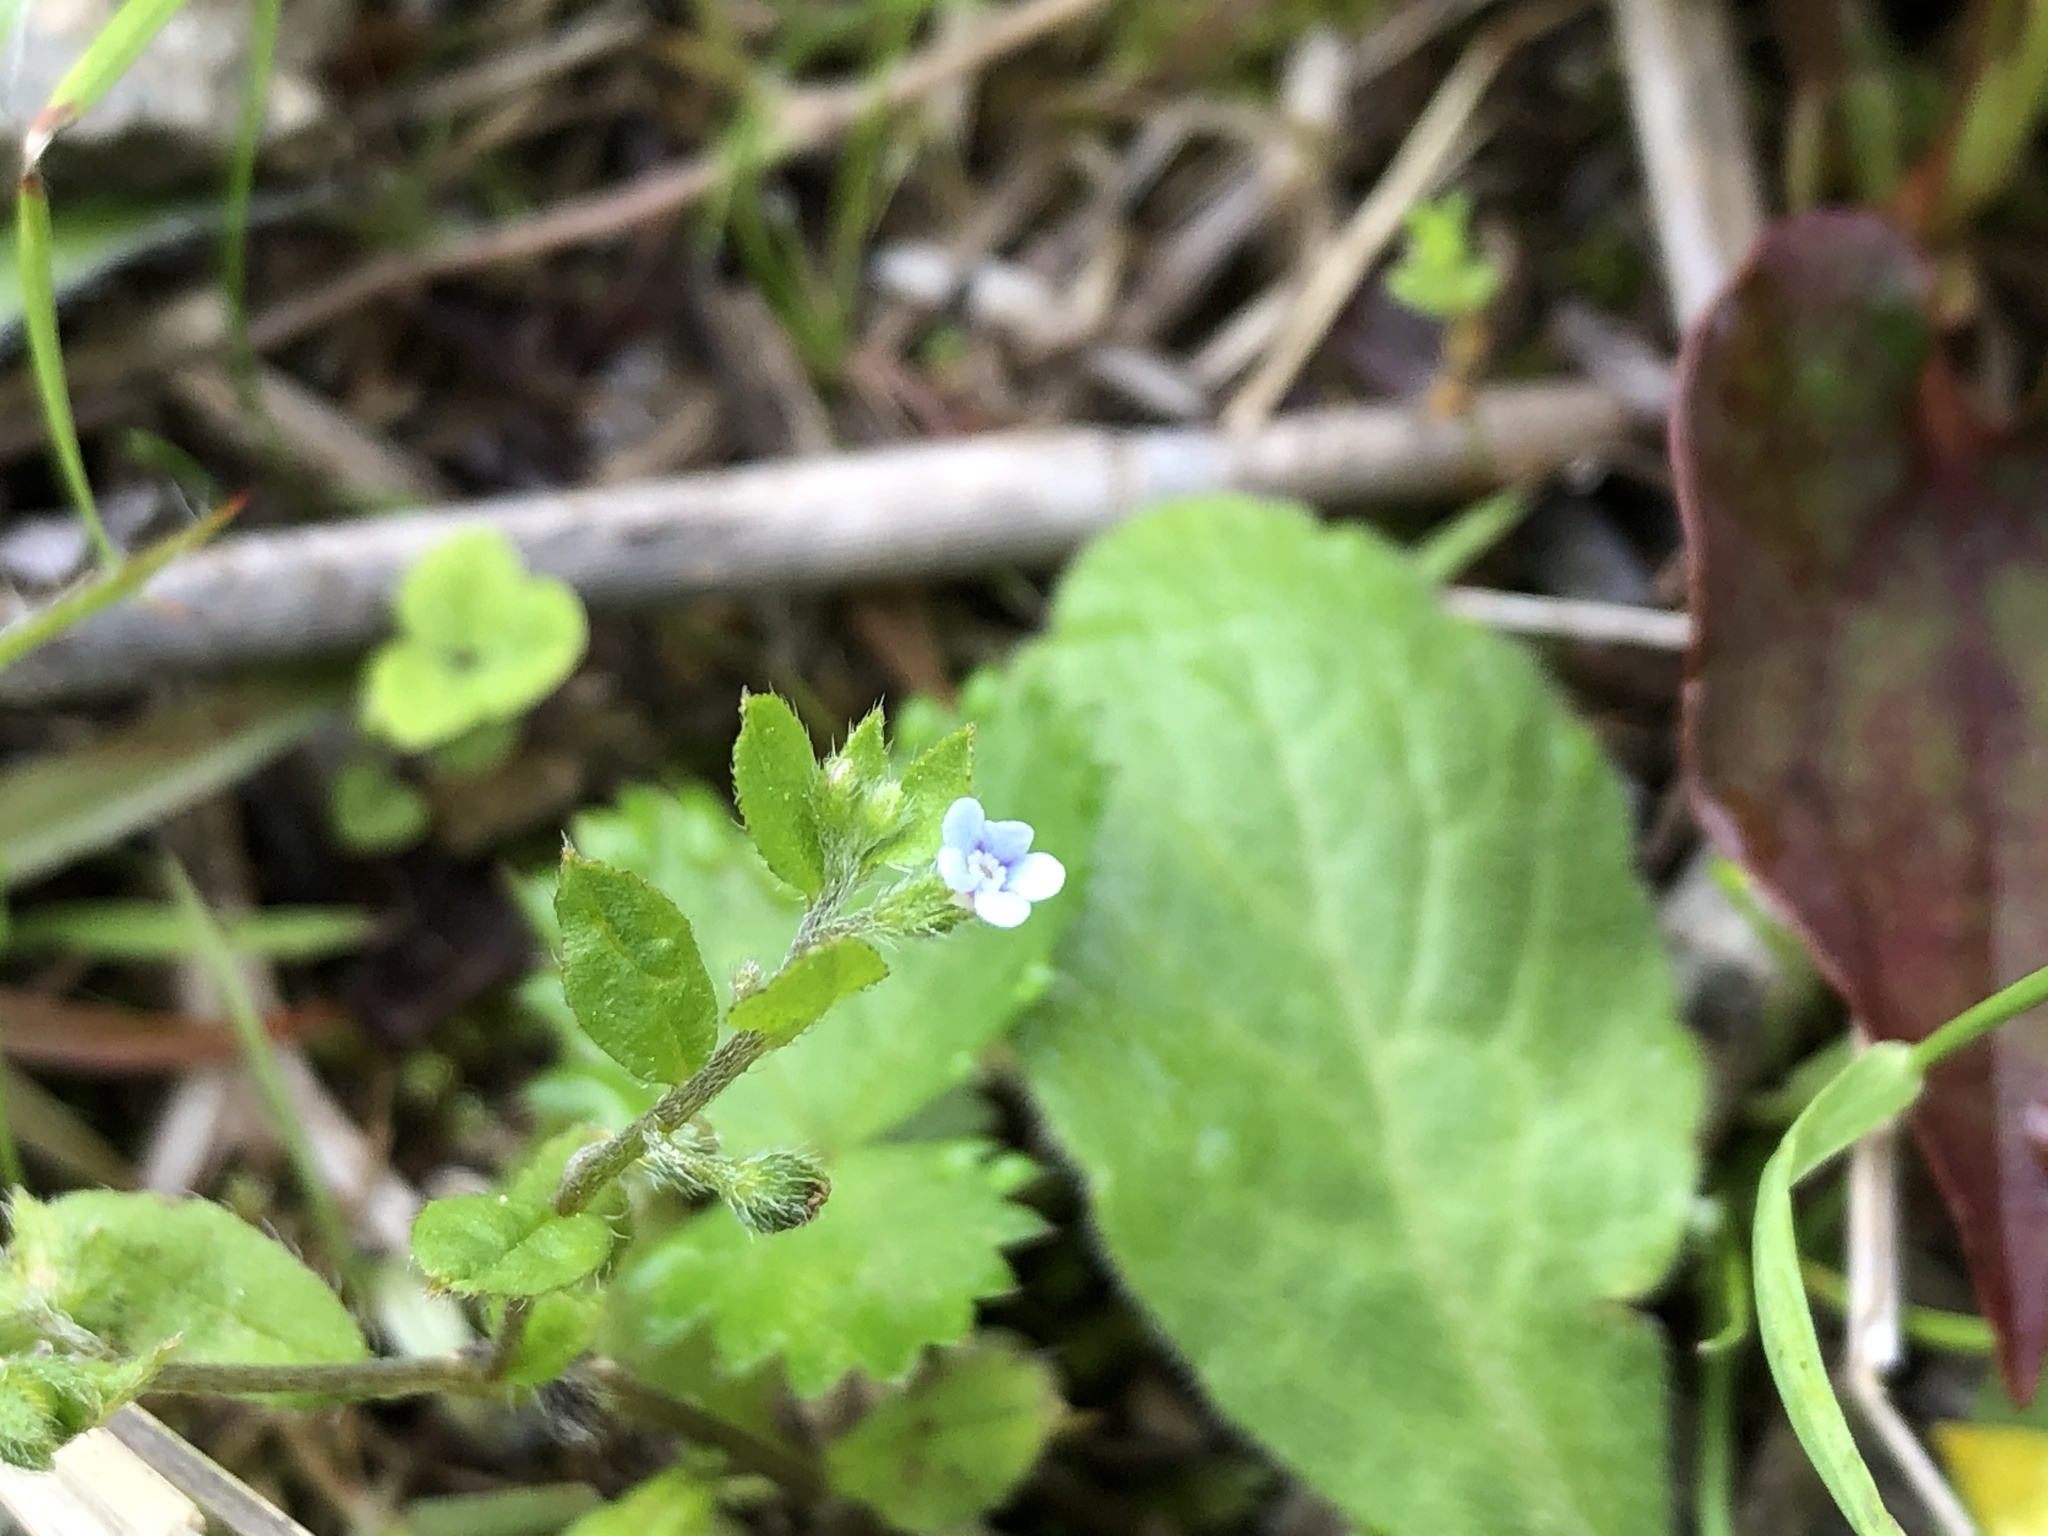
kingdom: Plantae
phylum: Tracheophyta
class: Magnoliopsida
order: Boraginales
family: Boraginaceae
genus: Bothriospermum
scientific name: Bothriospermum zeylanicum
